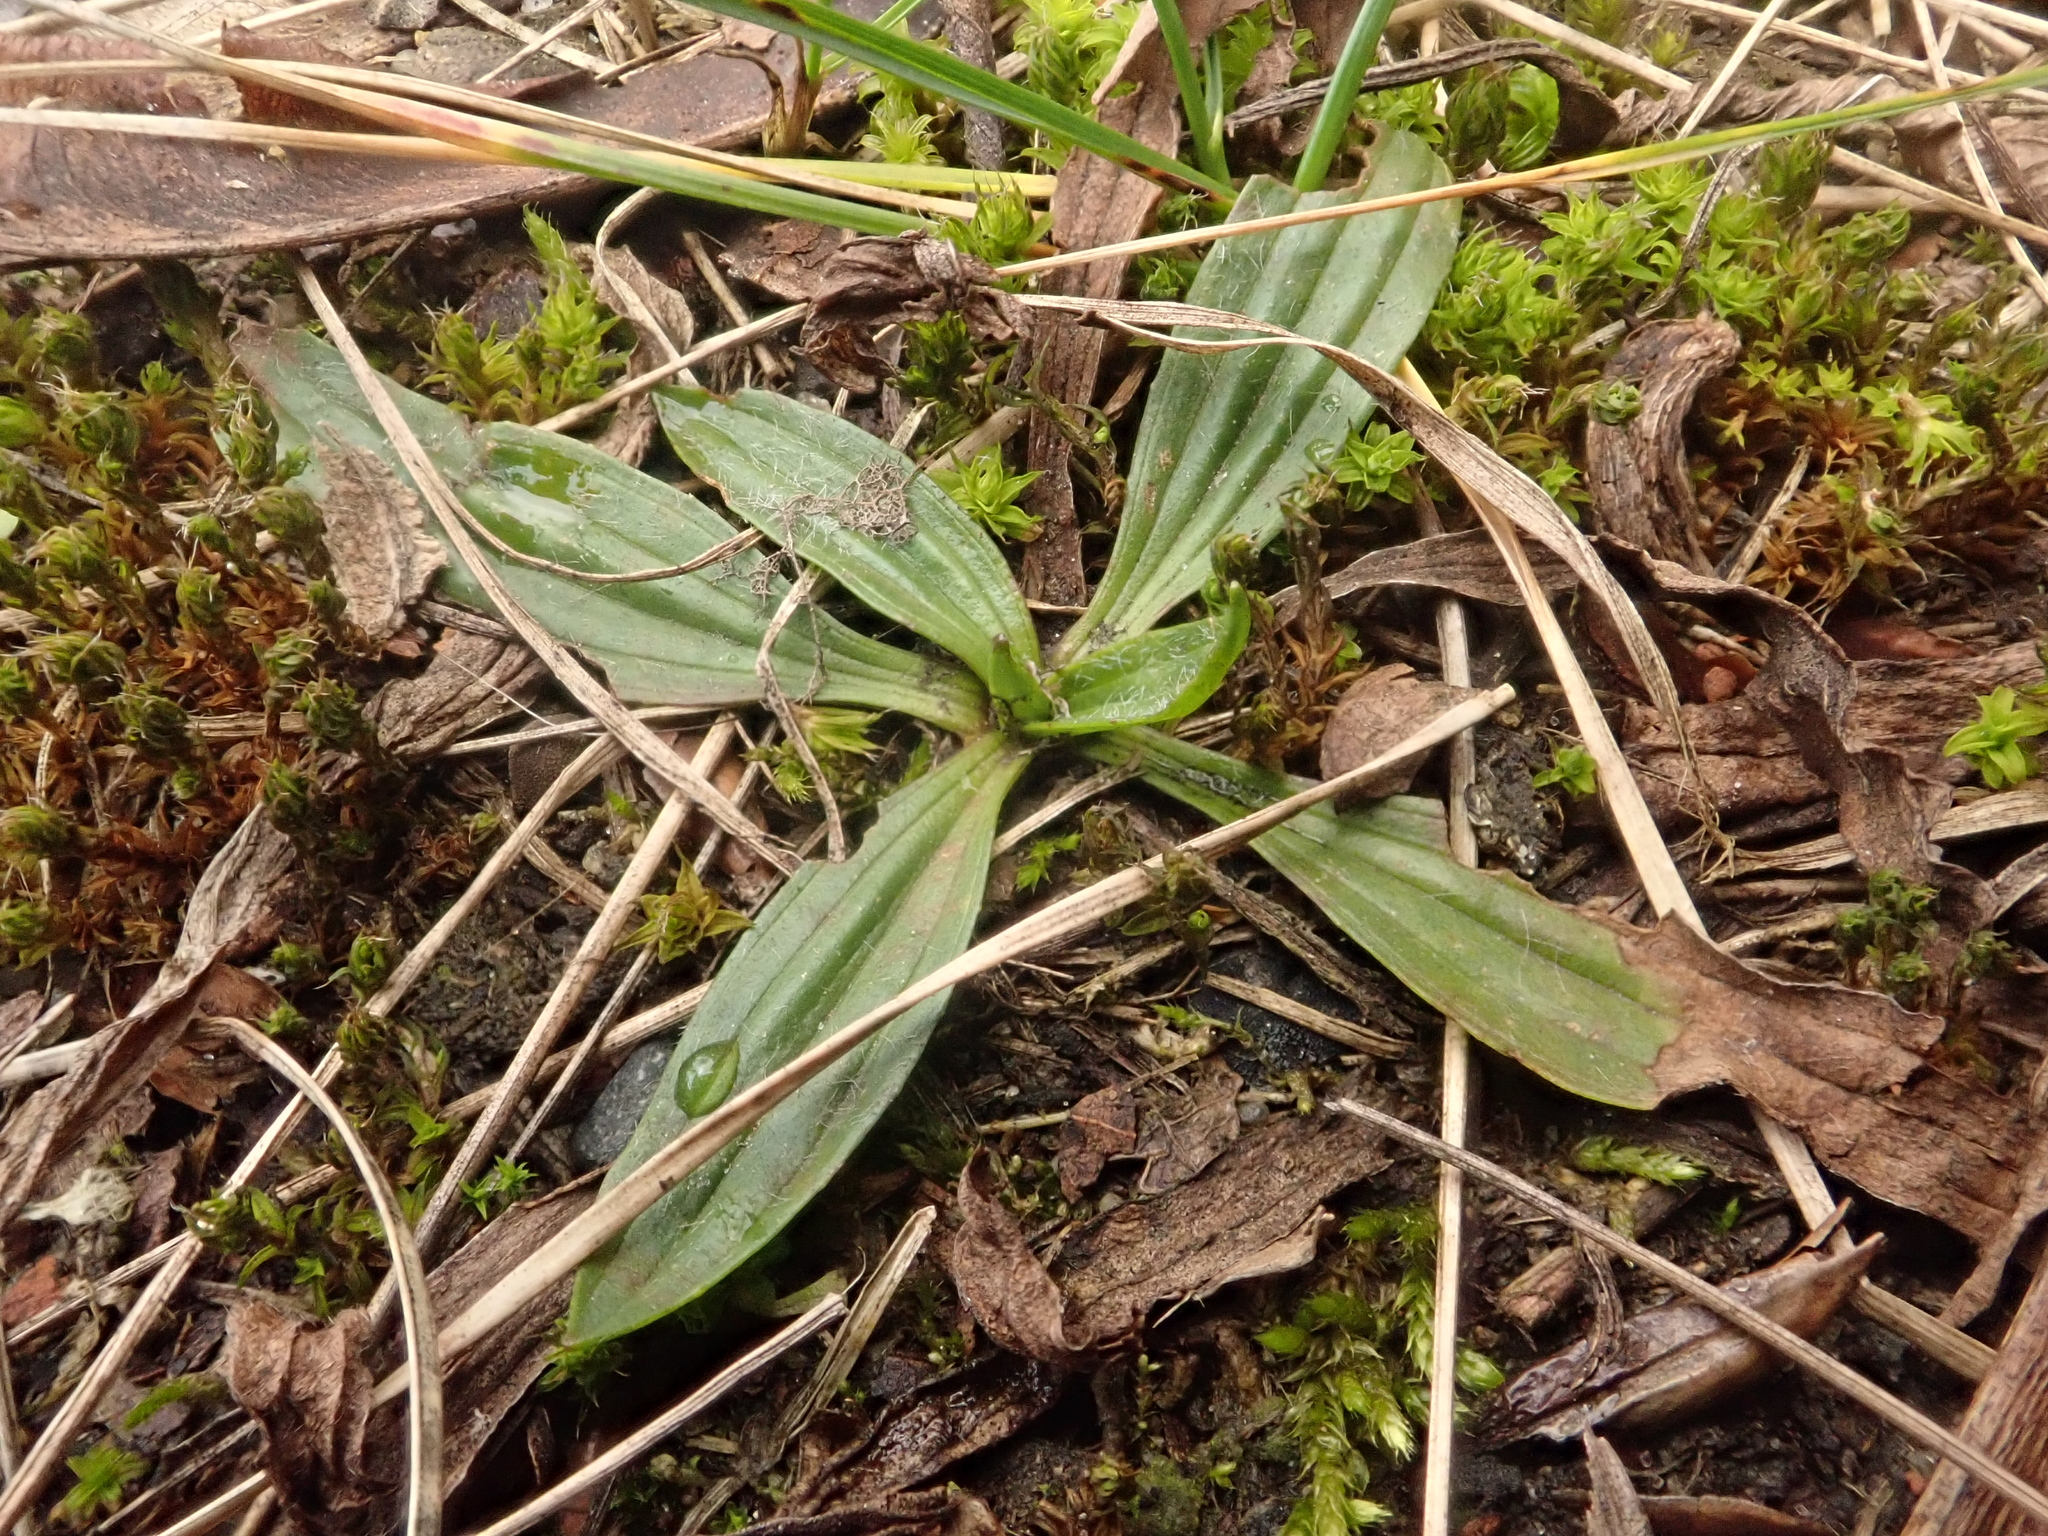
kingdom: Plantae
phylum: Tracheophyta
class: Magnoliopsida
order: Lamiales
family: Plantaginaceae
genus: Plantago
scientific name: Plantago lanceolata
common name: Ribwort plantain
